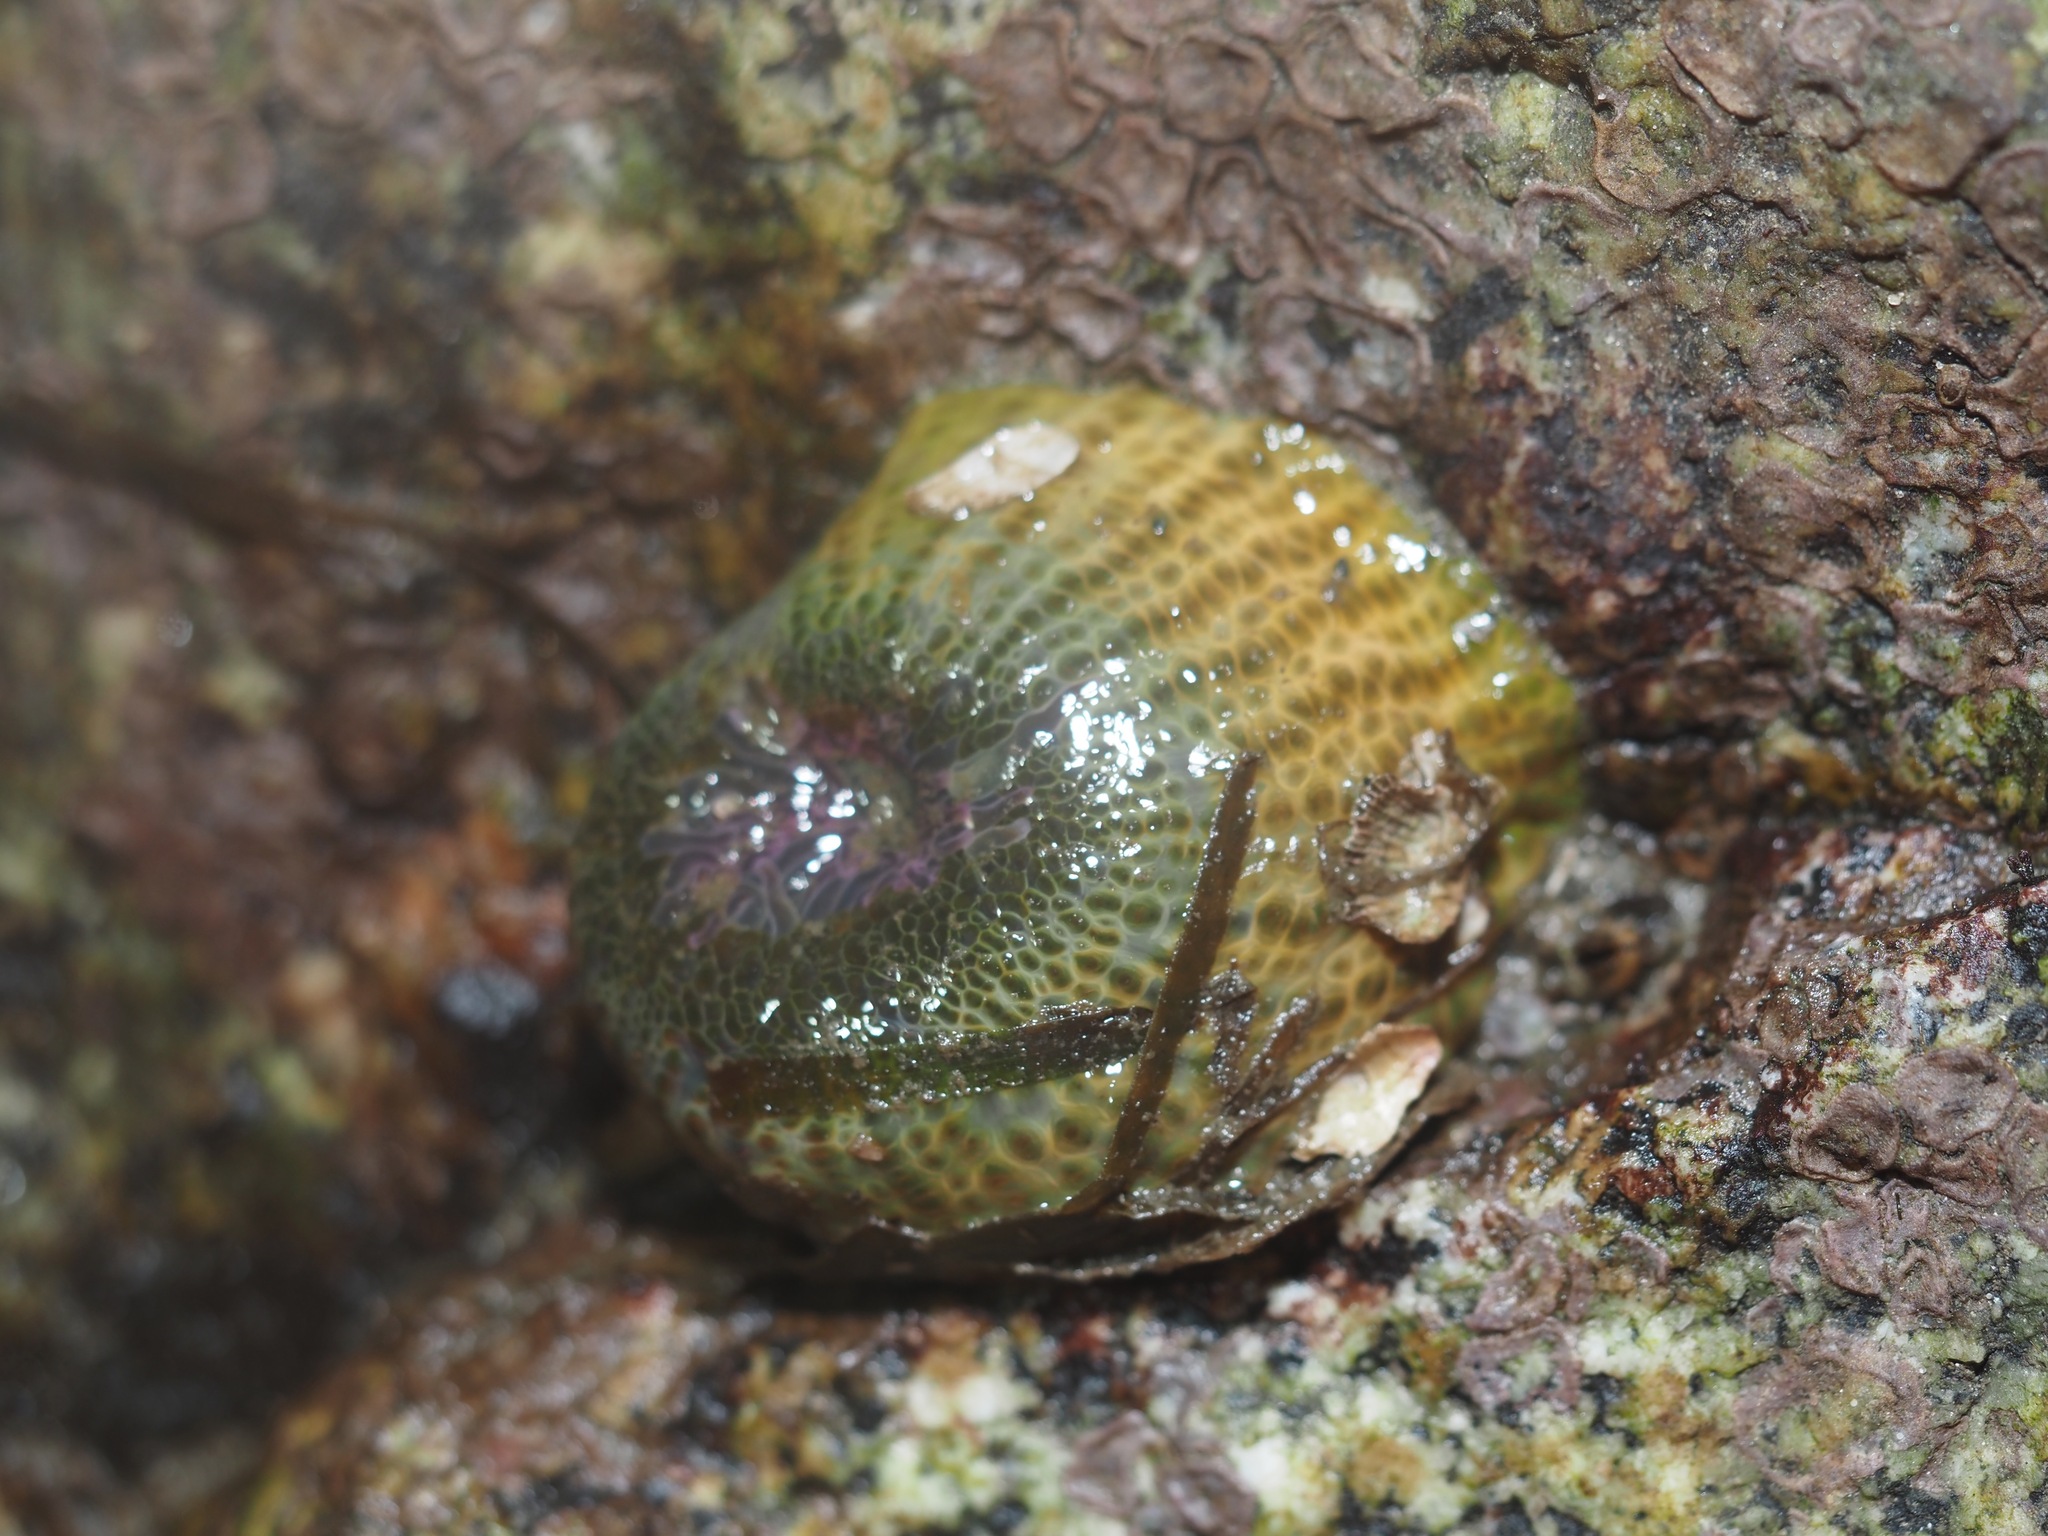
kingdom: Animalia
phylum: Cnidaria
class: Anthozoa
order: Actiniaria
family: Actiniidae
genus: Anthopleura
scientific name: Anthopleura elegantissima
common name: Clonal anemone
